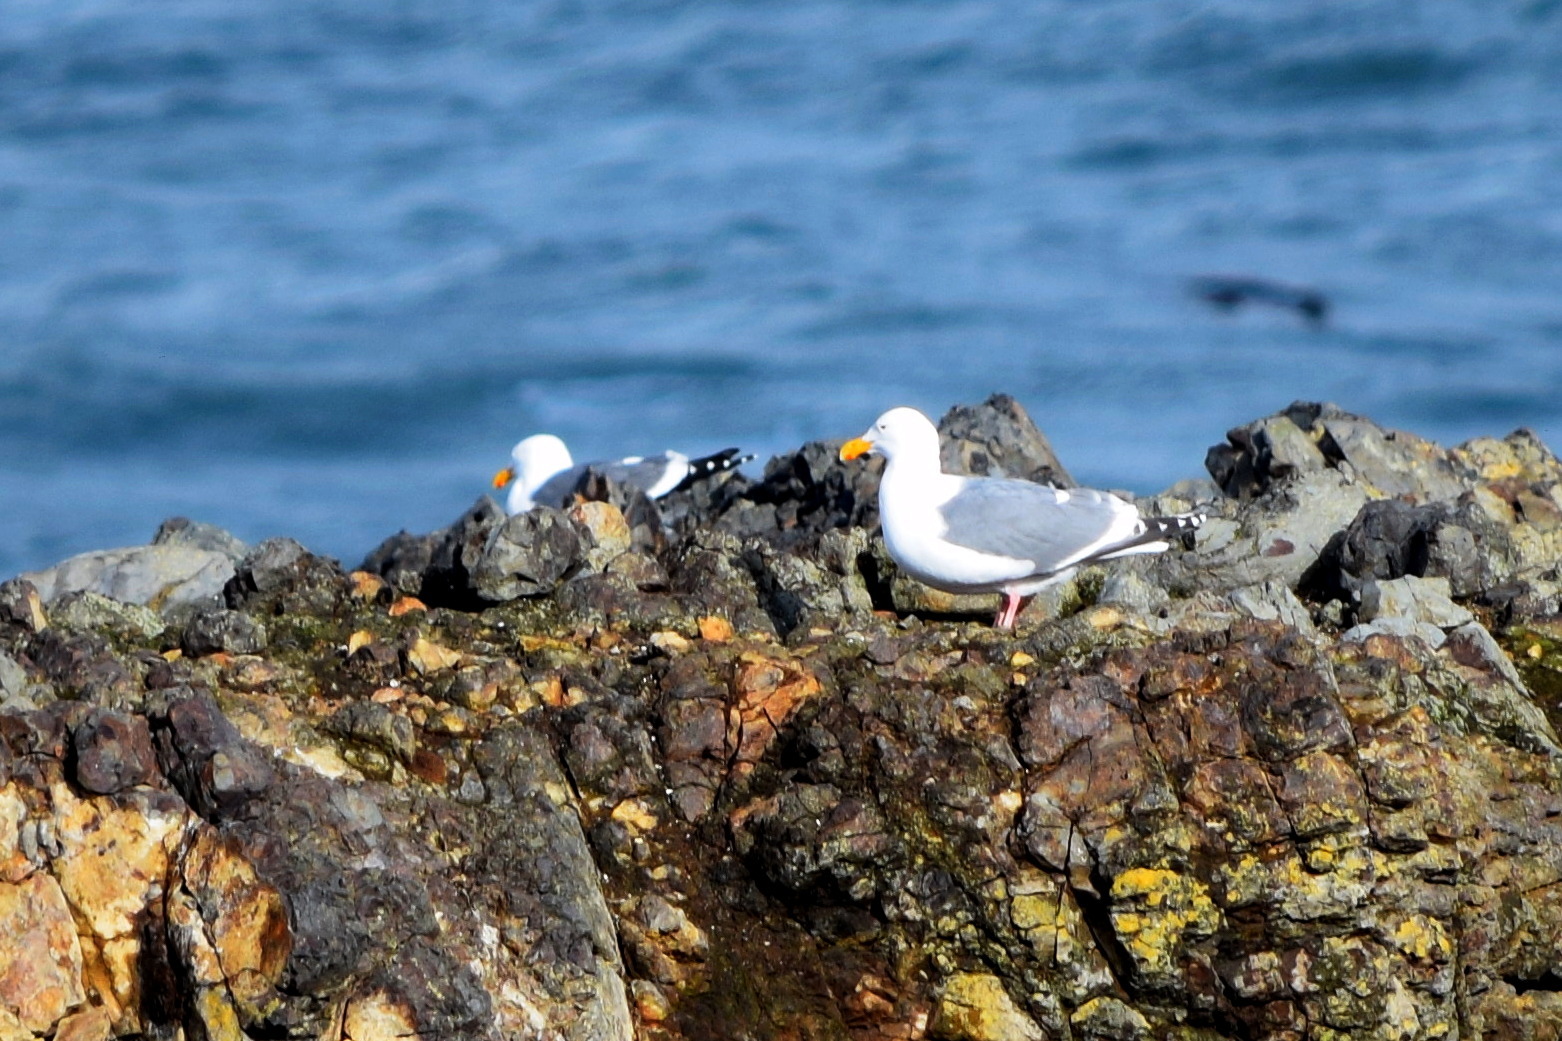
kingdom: Animalia
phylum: Chordata
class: Aves
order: Charadriiformes
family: Laridae
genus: Larus
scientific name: Larus occidentalis
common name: Western gull
